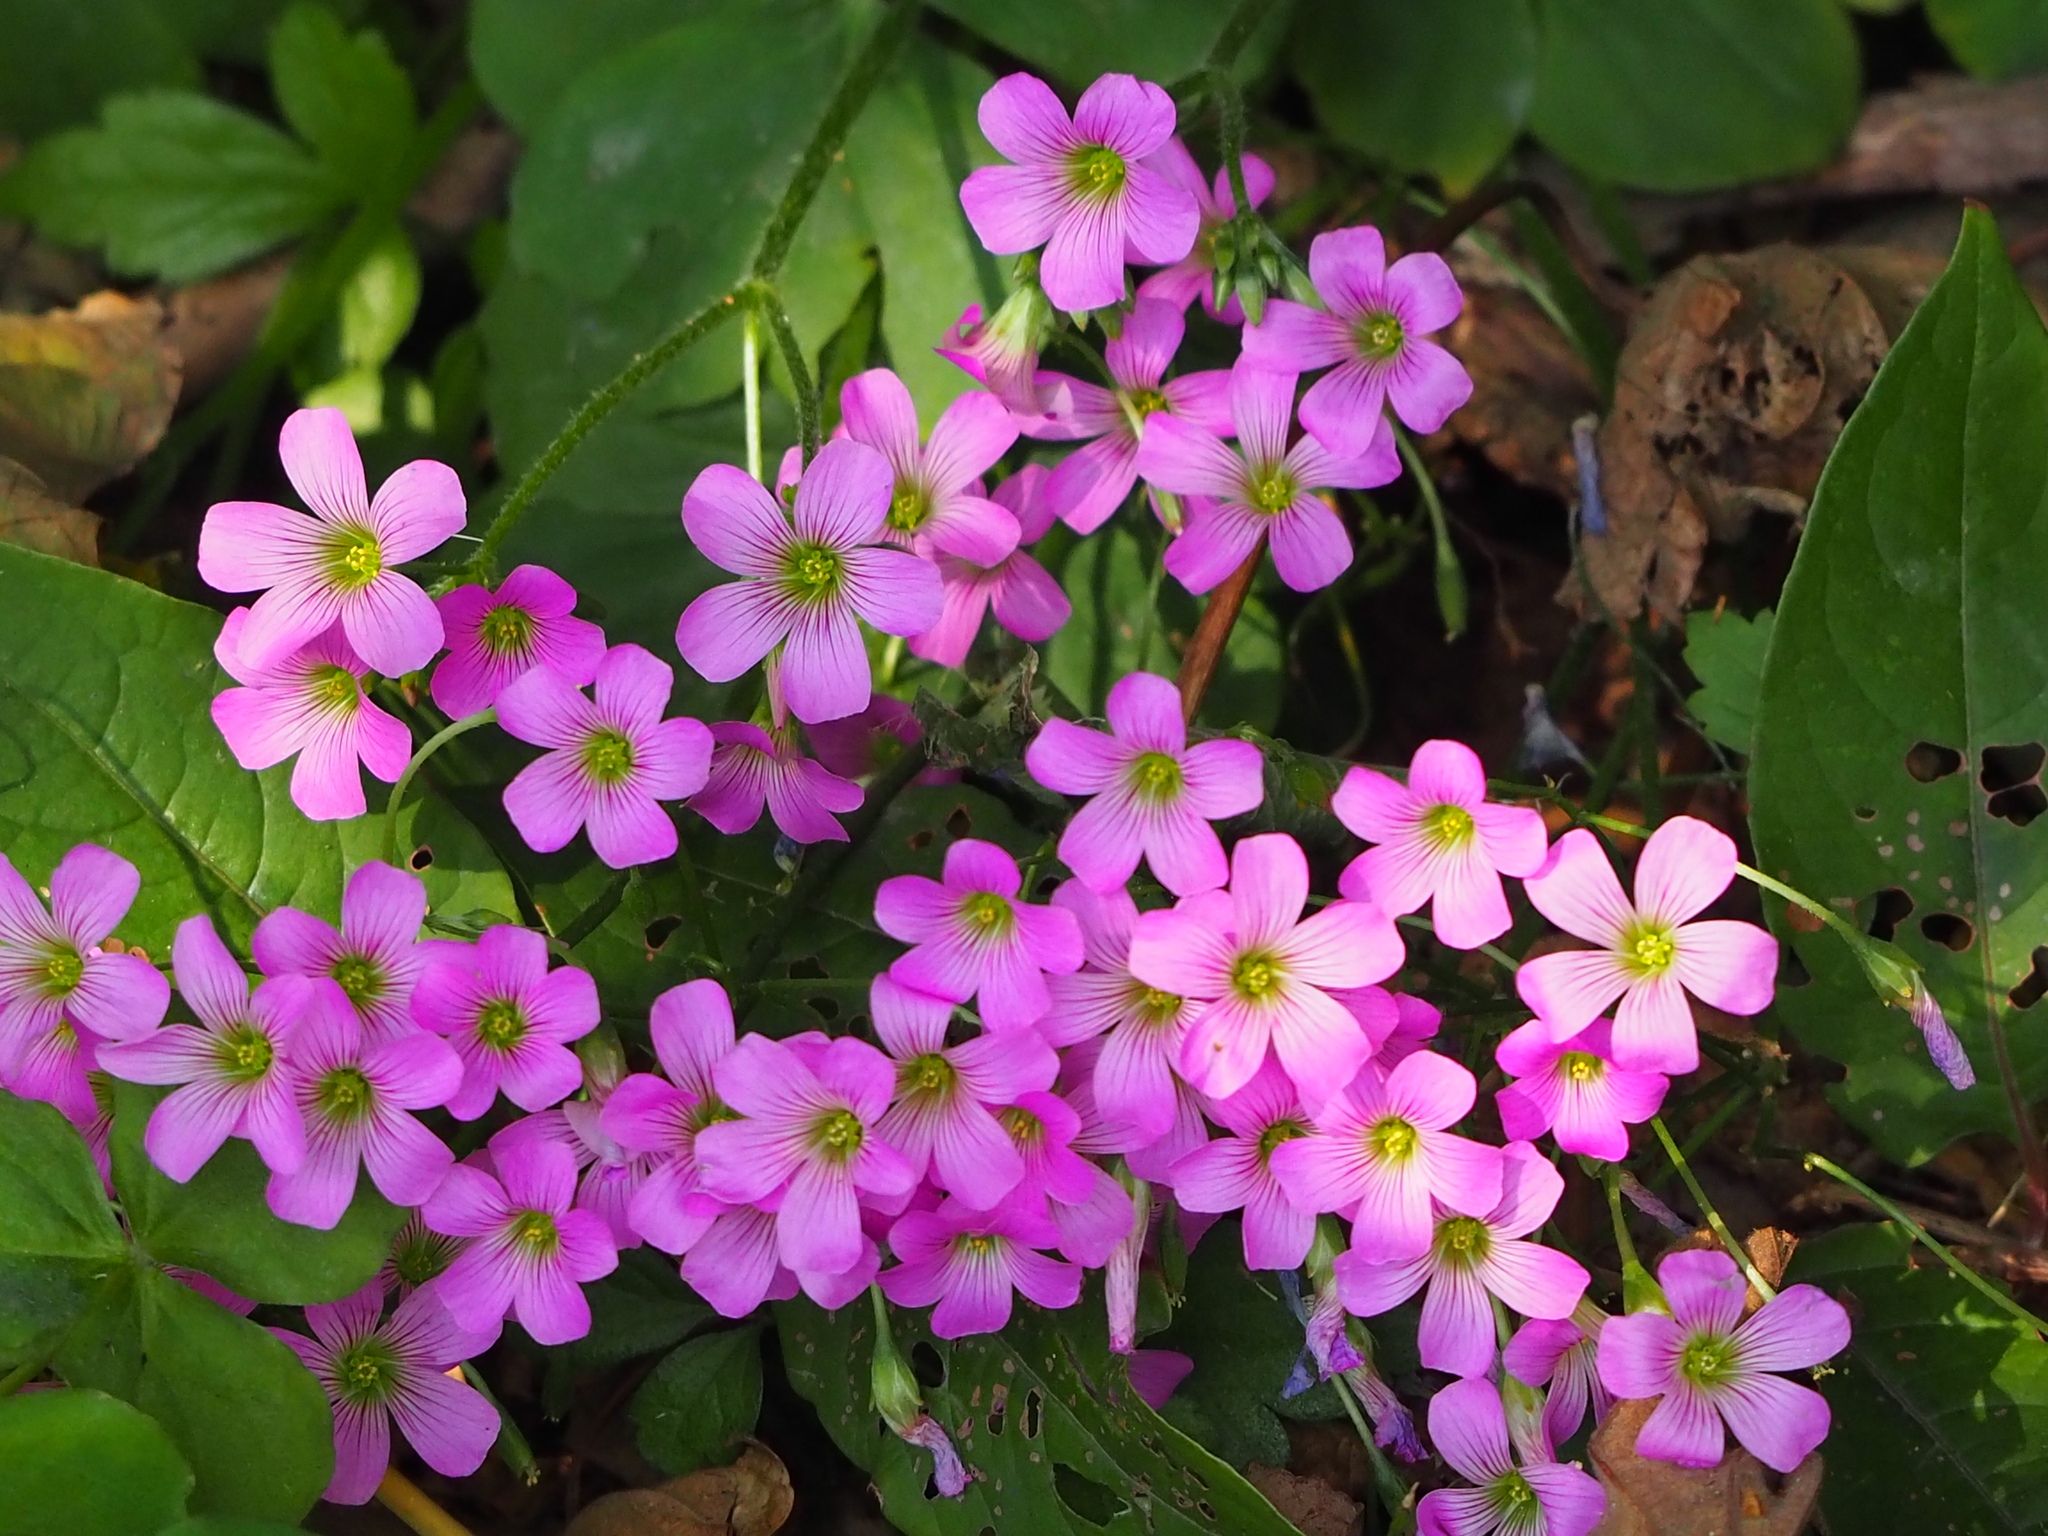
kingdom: Plantae
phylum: Tracheophyta
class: Magnoliopsida
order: Oxalidales
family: Oxalidaceae
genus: Oxalis
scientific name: Oxalis debilis
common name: Large-flowered pink-sorrel
